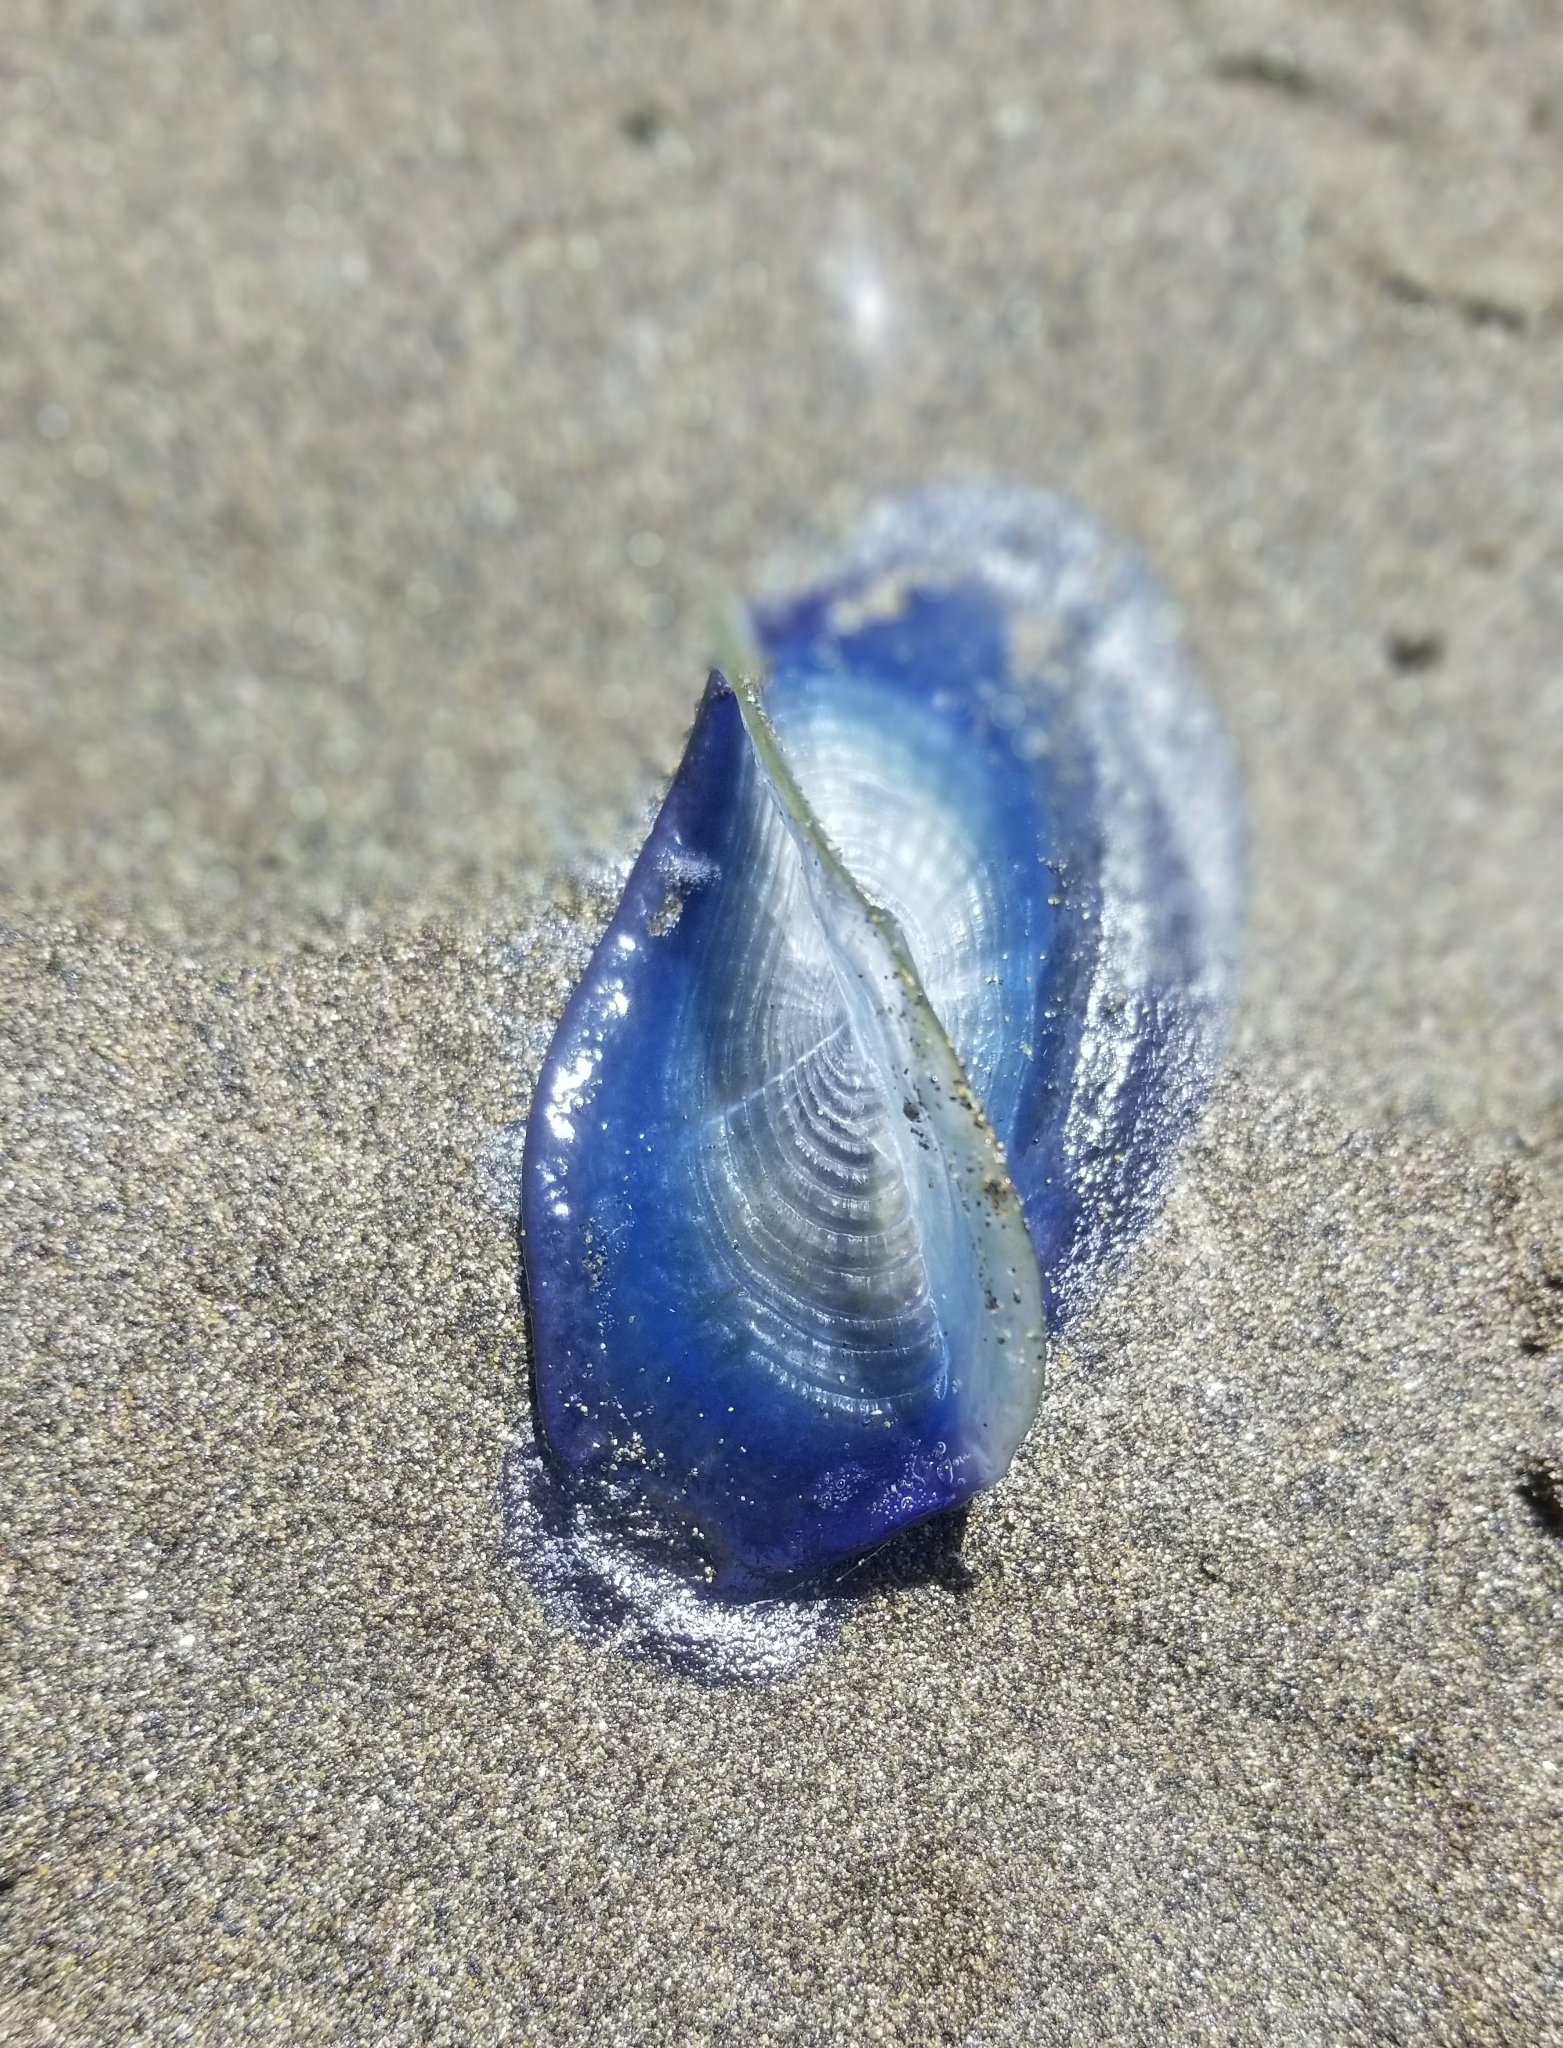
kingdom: Animalia
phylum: Cnidaria
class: Hydrozoa
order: Anthoathecata
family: Porpitidae
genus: Velella
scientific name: Velella velella
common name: By-the-wind-sailor
